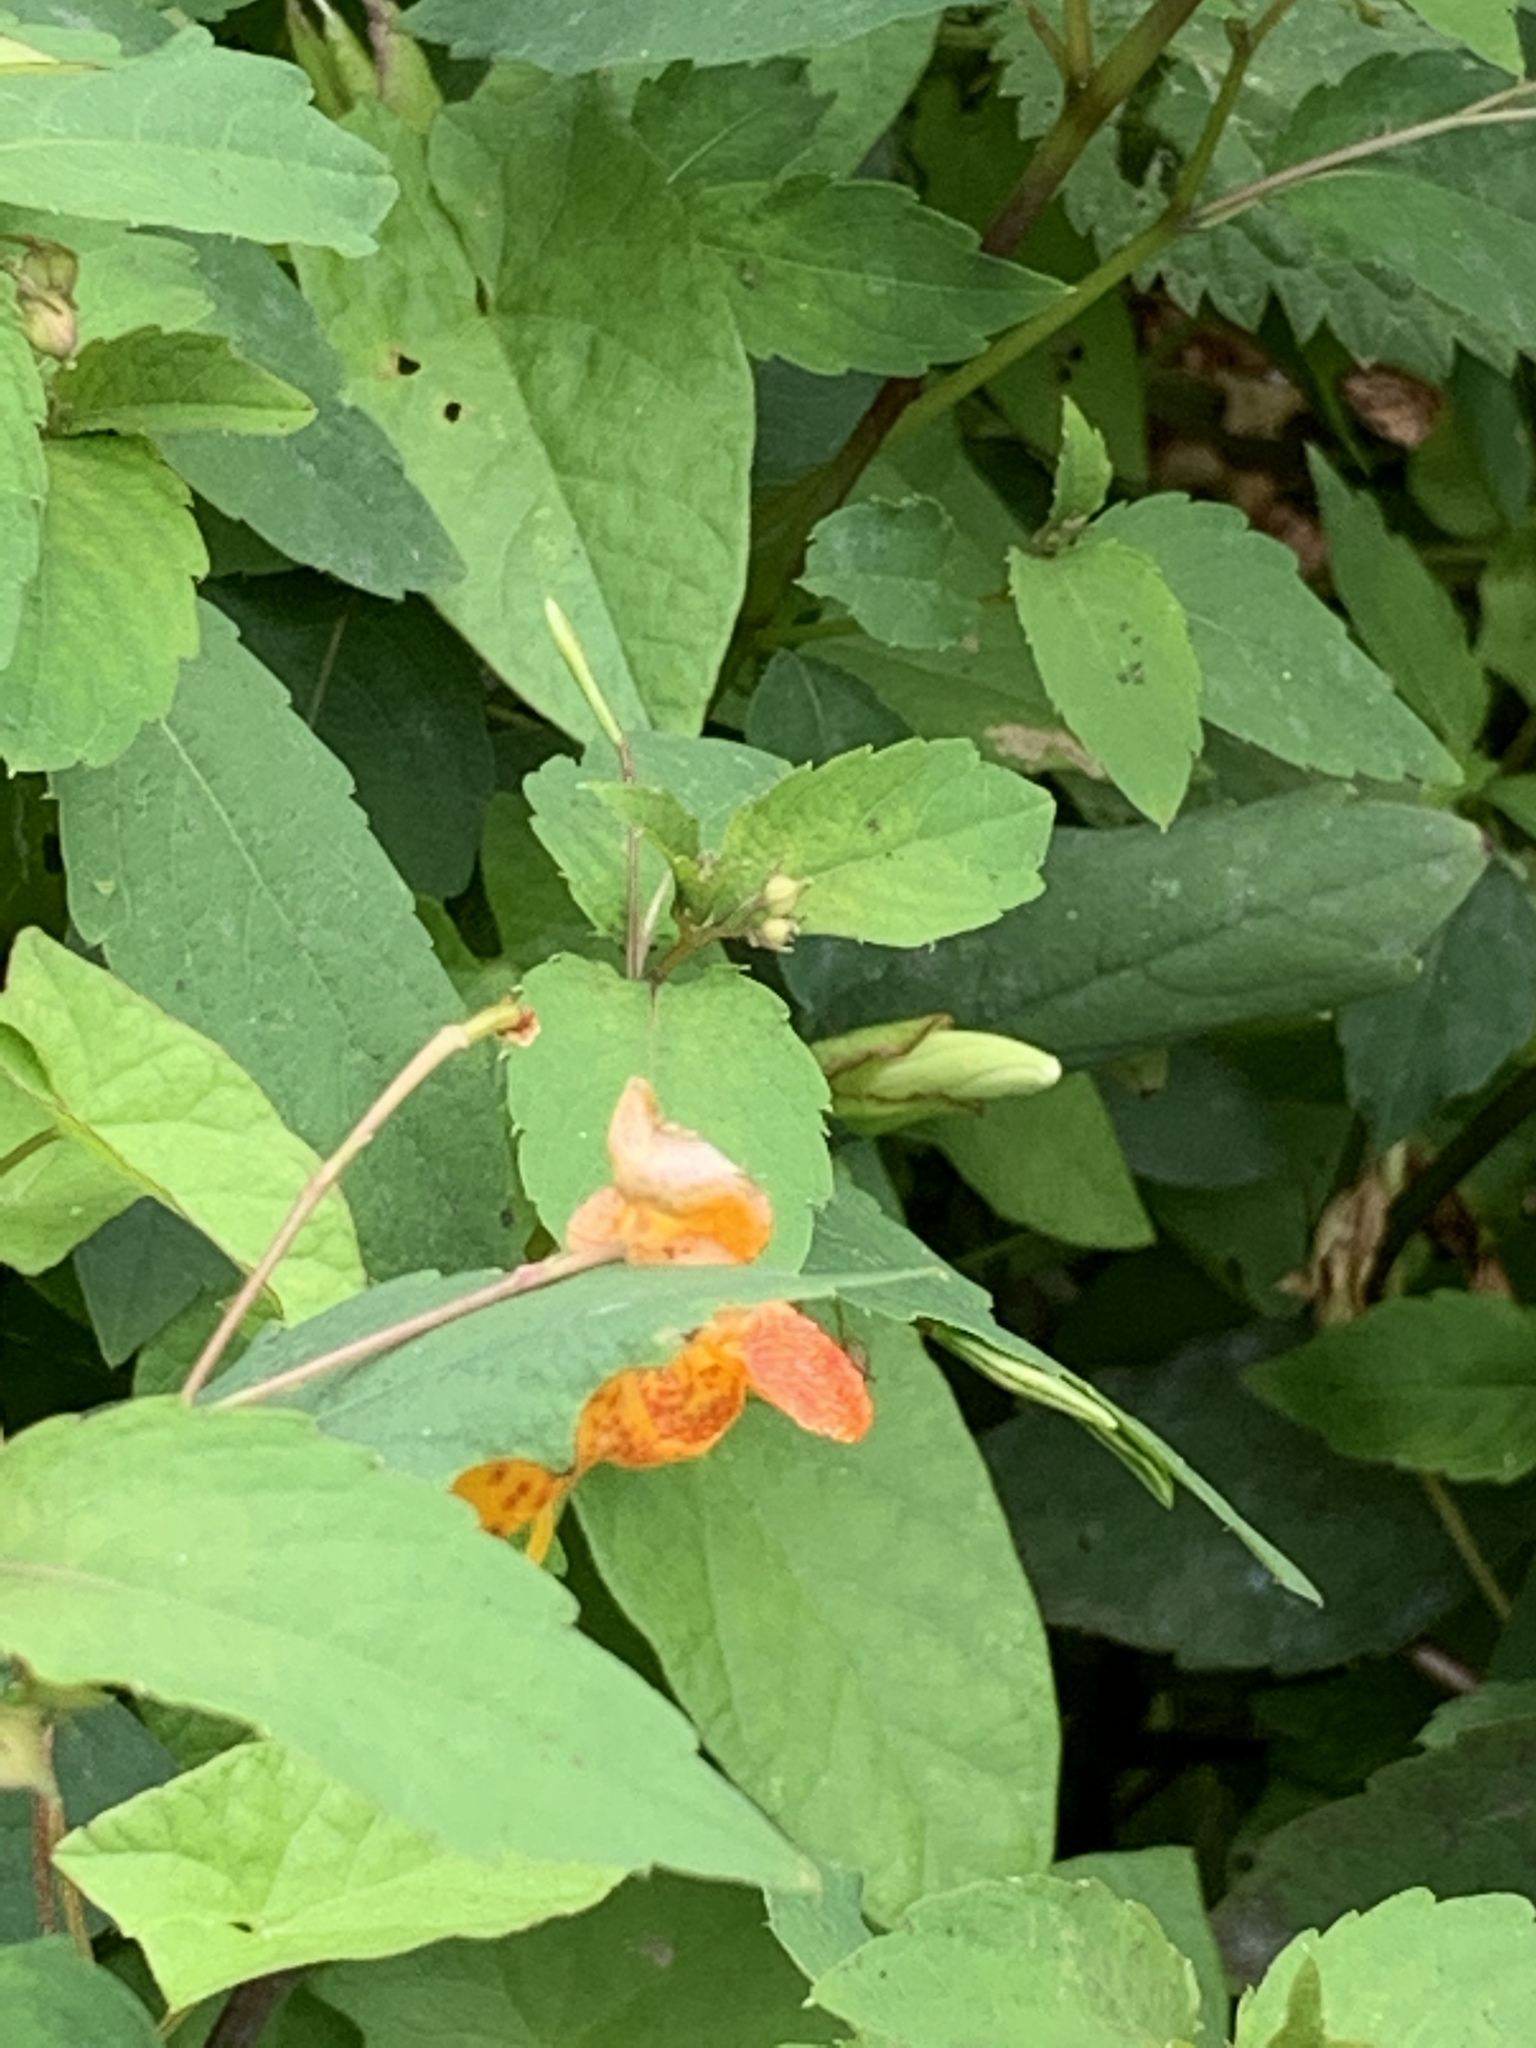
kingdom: Plantae
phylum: Tracheophyta
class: Magnoliopsida
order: Ericales
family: Balsaminaceae
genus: Impatiens
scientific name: Impatiens capensis
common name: Orange balsam
